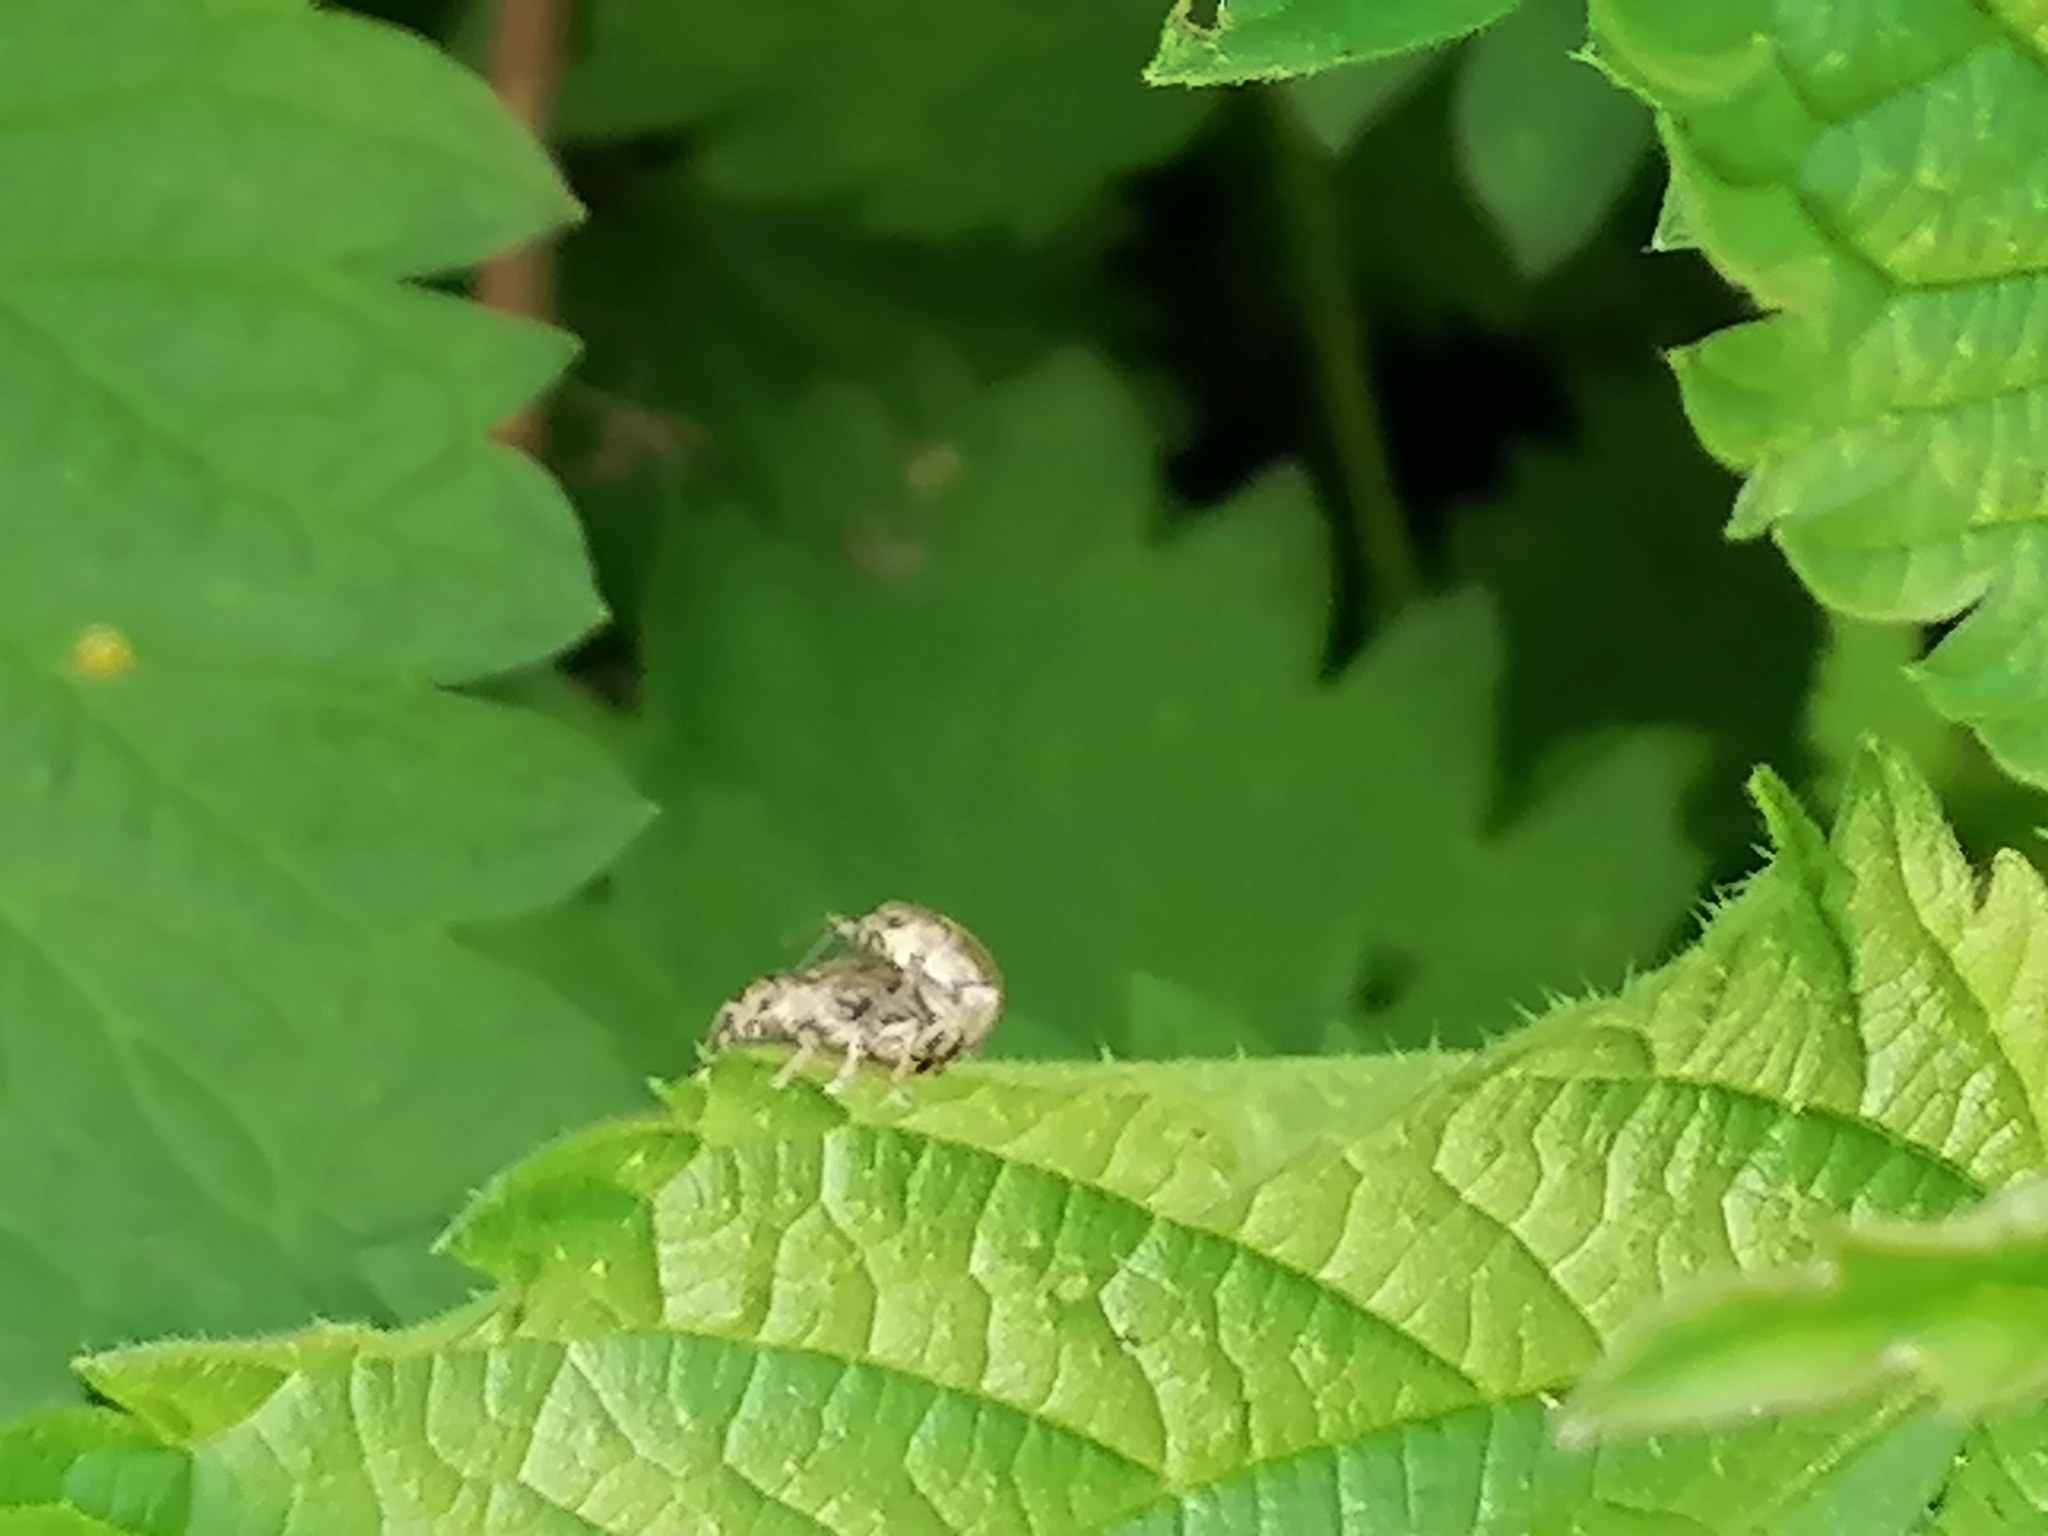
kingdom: Animalia
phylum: Arthropoda
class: Insecta
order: Coleoptera
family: Curculionidae
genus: Sciaphobus
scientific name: Sciaphobus squalidus
